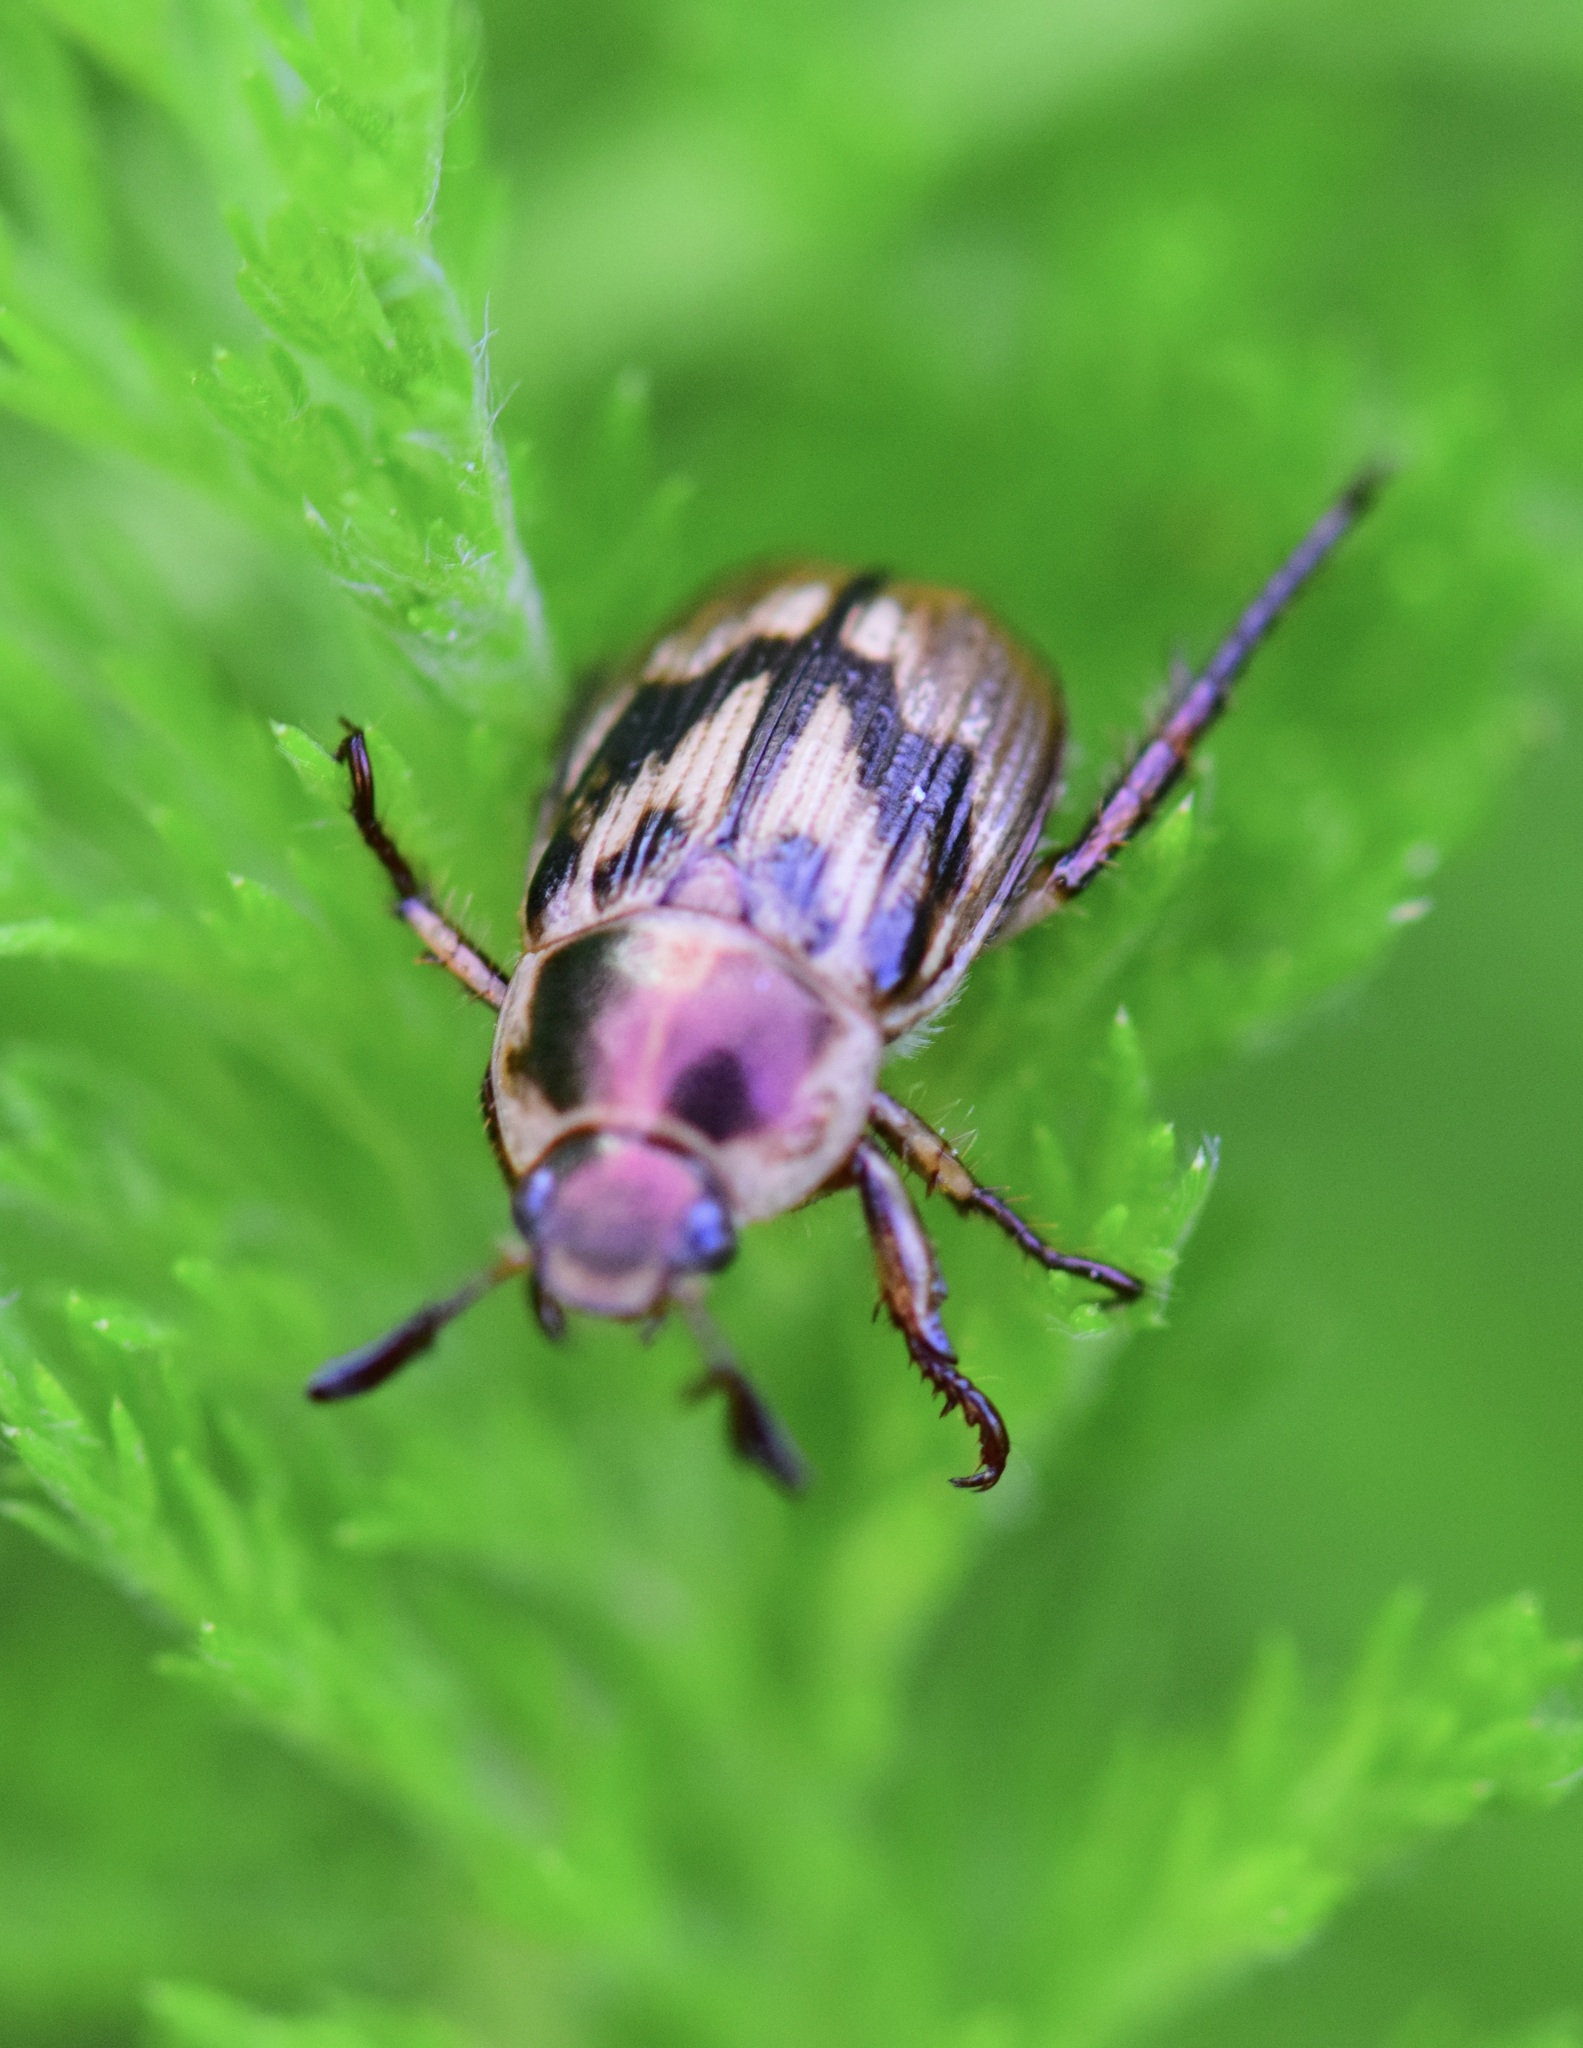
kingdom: Animalia
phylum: Arthropoda
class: Insecta
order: Coleoptera
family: Scarabaeidae
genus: Exomala
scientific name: Exomala orientalis
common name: Oriental beetle
